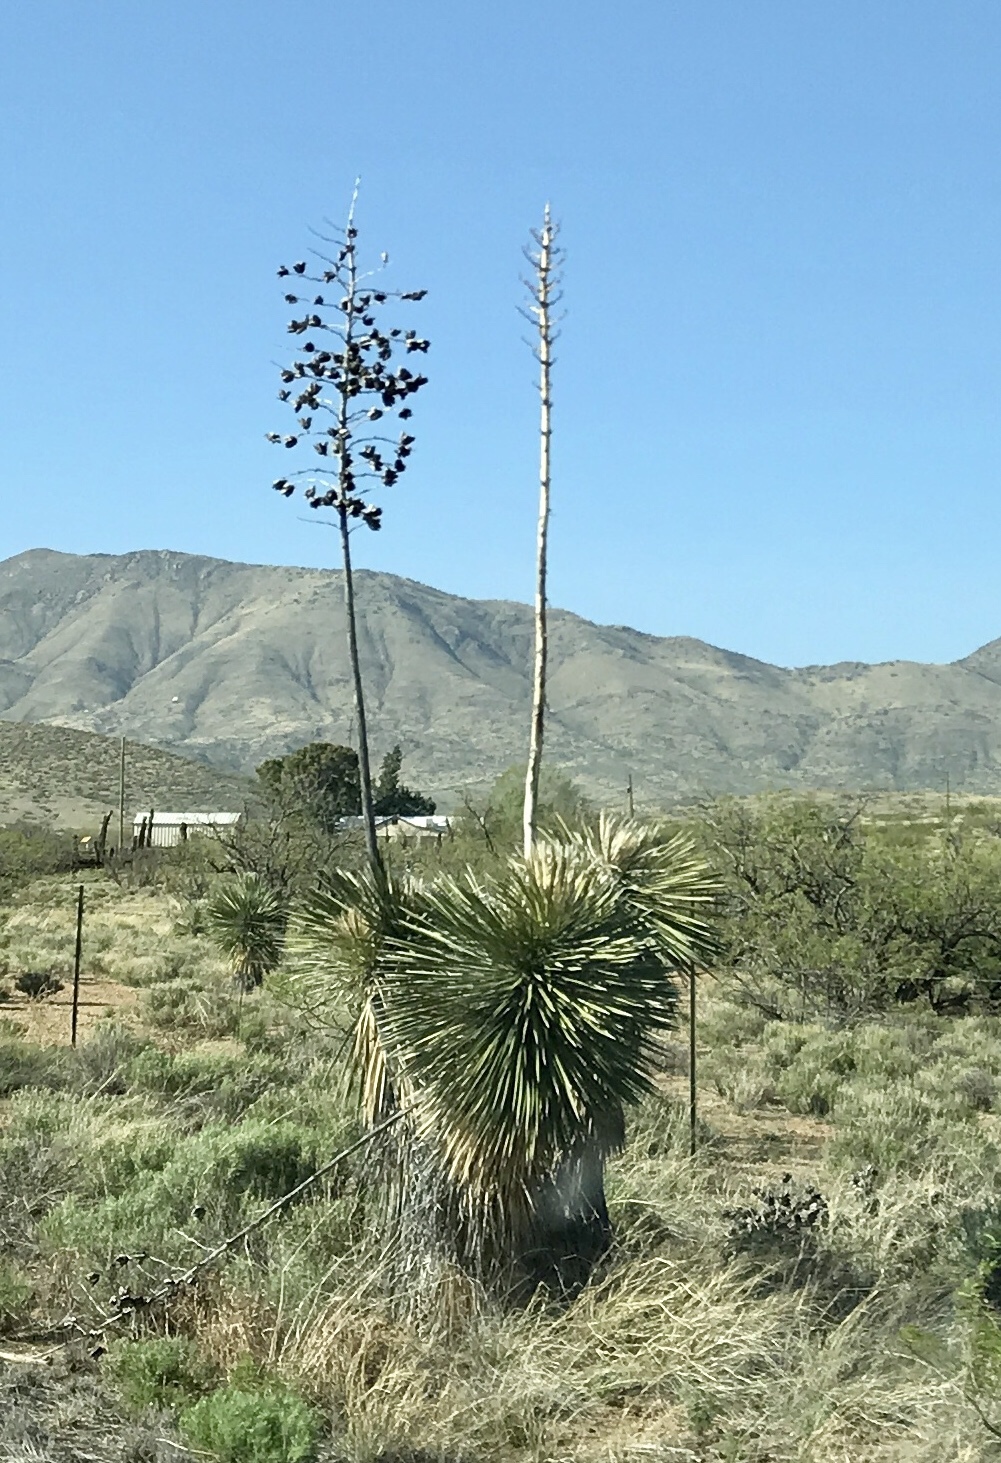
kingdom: Plantae
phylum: Tracheophyta
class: Liliopsida
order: Asparagales
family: Asparagaceae
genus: Yucca
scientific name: Yucca elata
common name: Palmella
